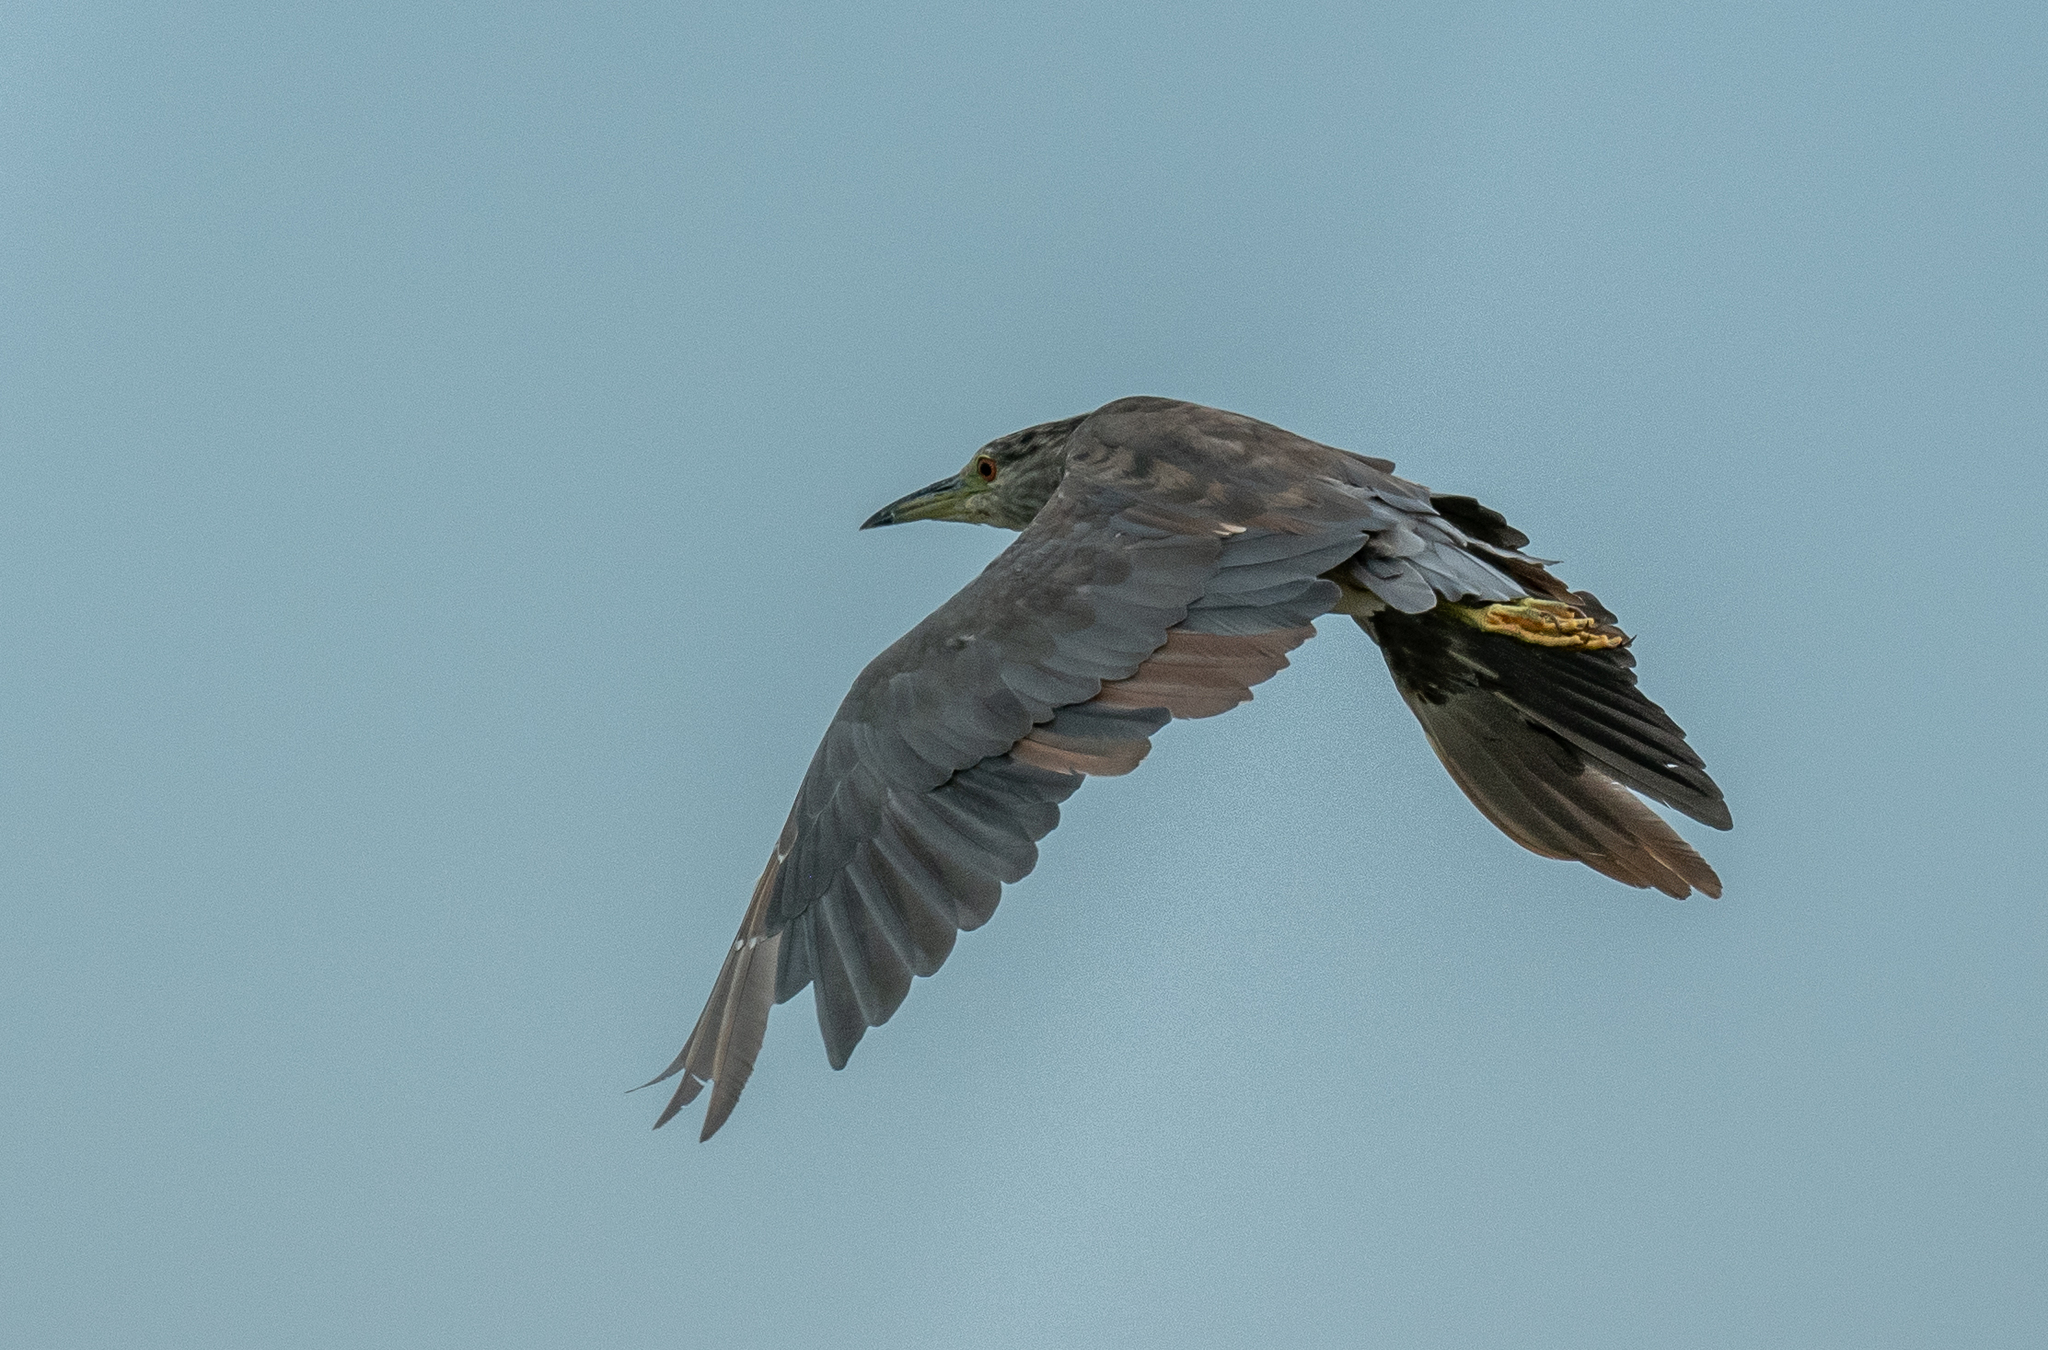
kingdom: Animalia
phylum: Chordata
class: Aves
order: Pelecaniformes
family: Ardeidae
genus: Nycticorax
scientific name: Nycticorax nycticorax
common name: Black-crowned night heron
